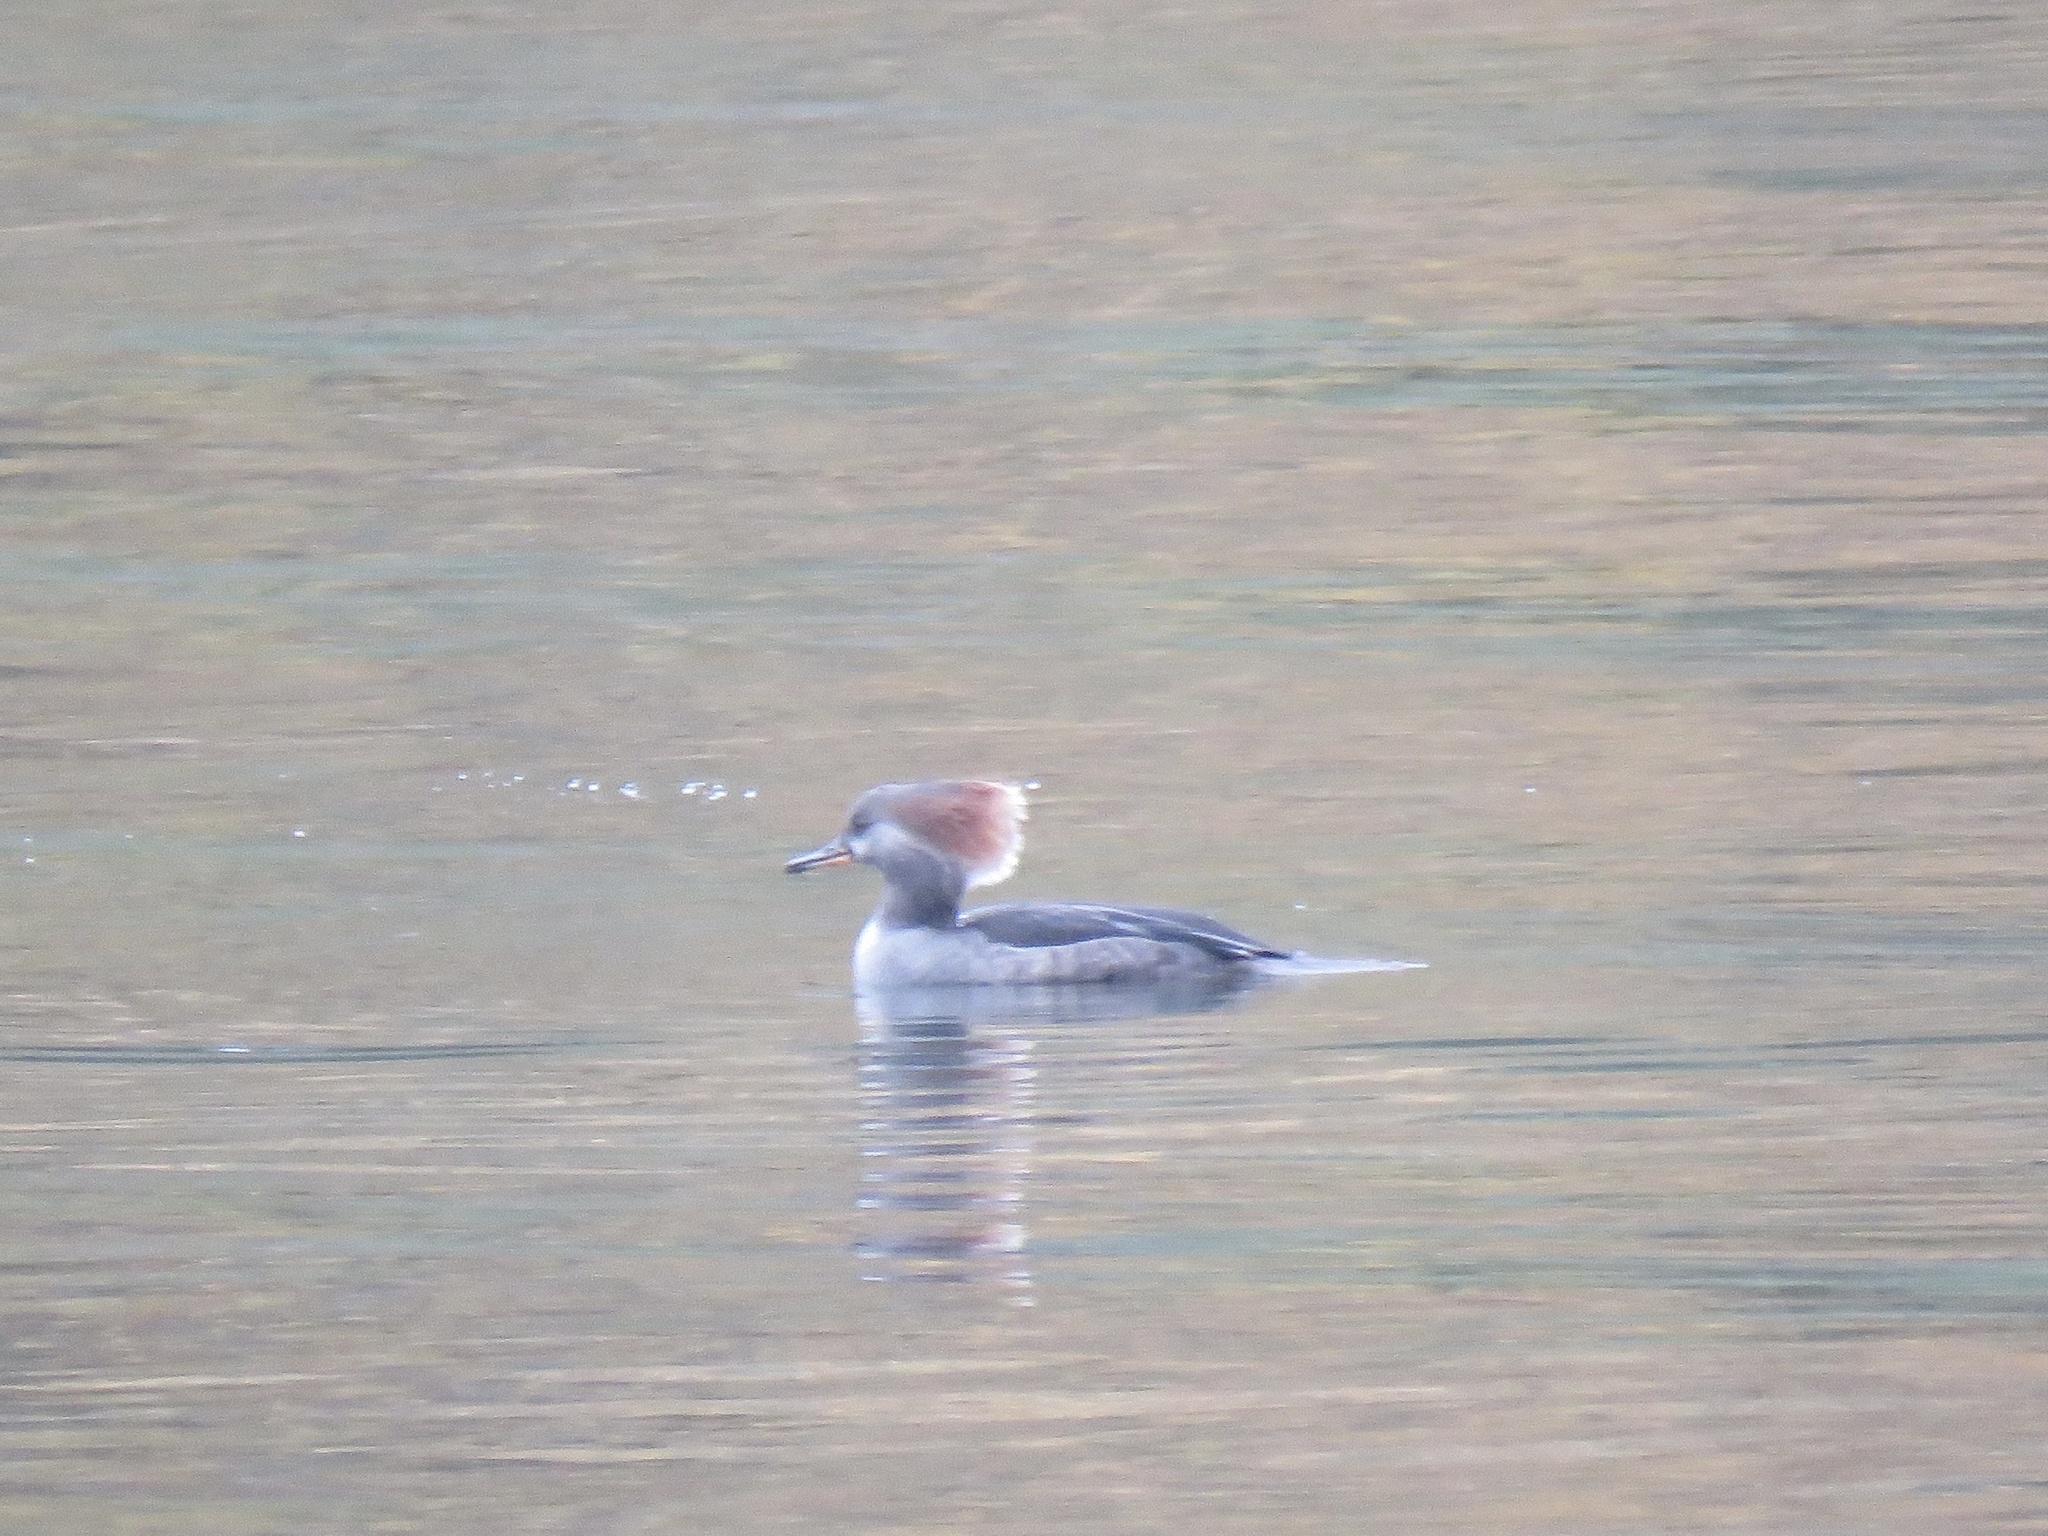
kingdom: Animalia
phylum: Chordata
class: Aves
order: Anseriformes
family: Anatidae
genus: Lophodytes
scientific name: Lophodytes cucullatus
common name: Hooded merganser
